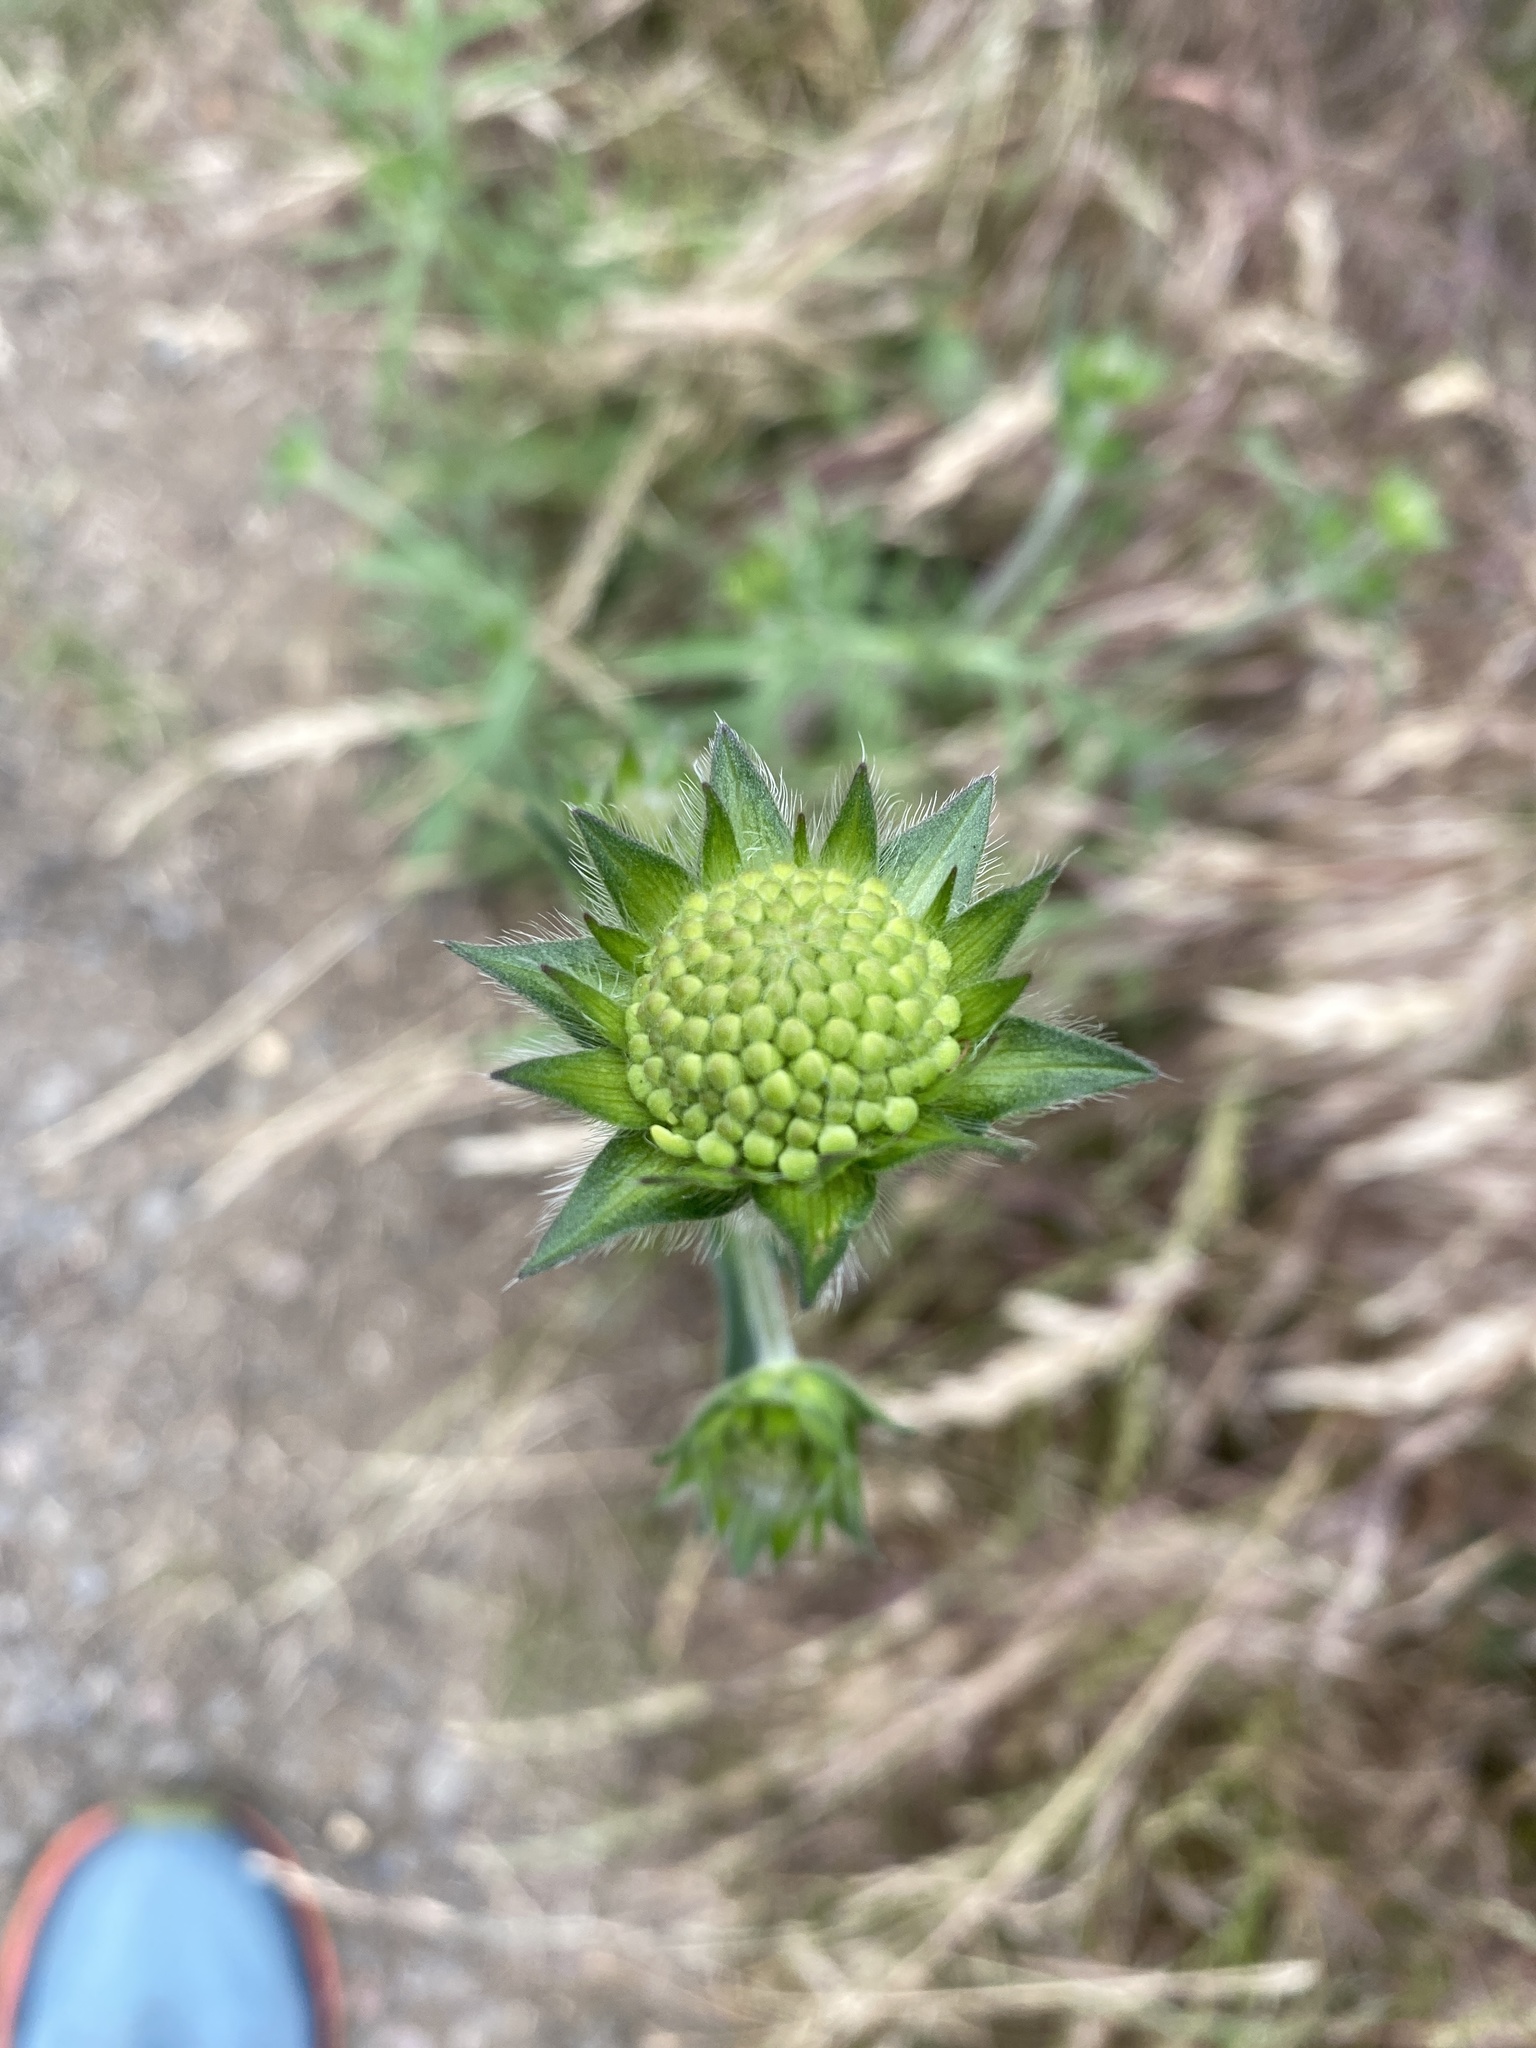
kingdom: Plantae
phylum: Tracheophyta
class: Magnoliopsida
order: Dipsacales
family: Caprifoliaceae
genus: Knautia
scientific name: Knautia arvensis
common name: Field scabiosa
